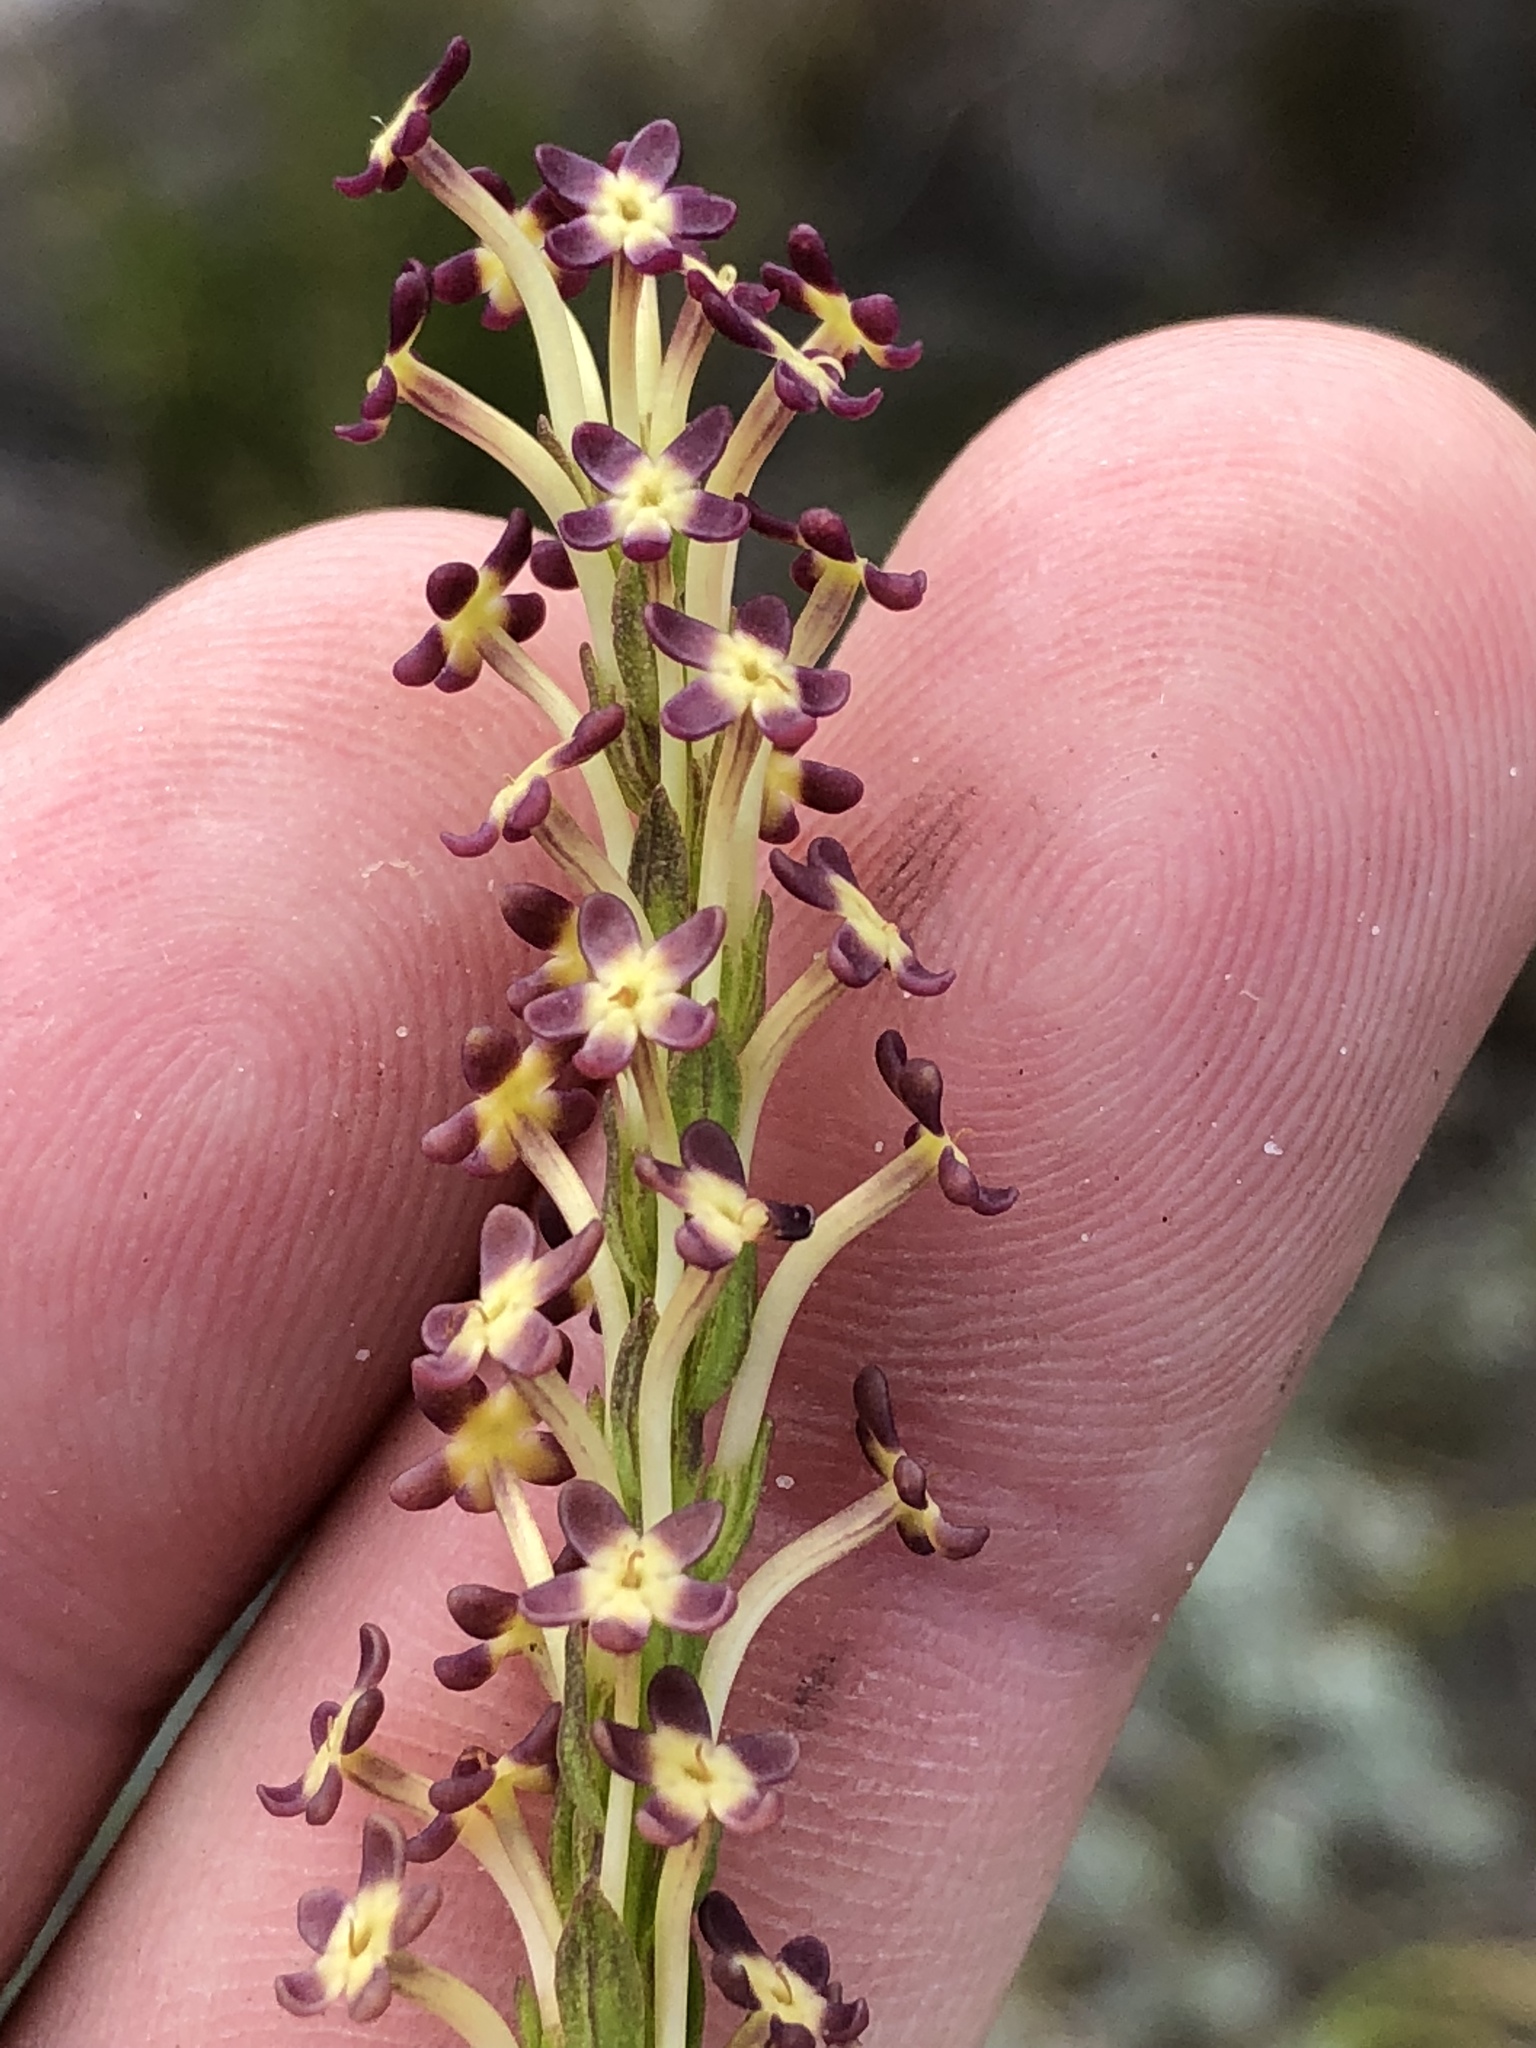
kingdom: Plantae
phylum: Tracheophyta
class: Magnoliopsida
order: Lamiales
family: Scrophulariaceae
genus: Microdon
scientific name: Microdon dubius
